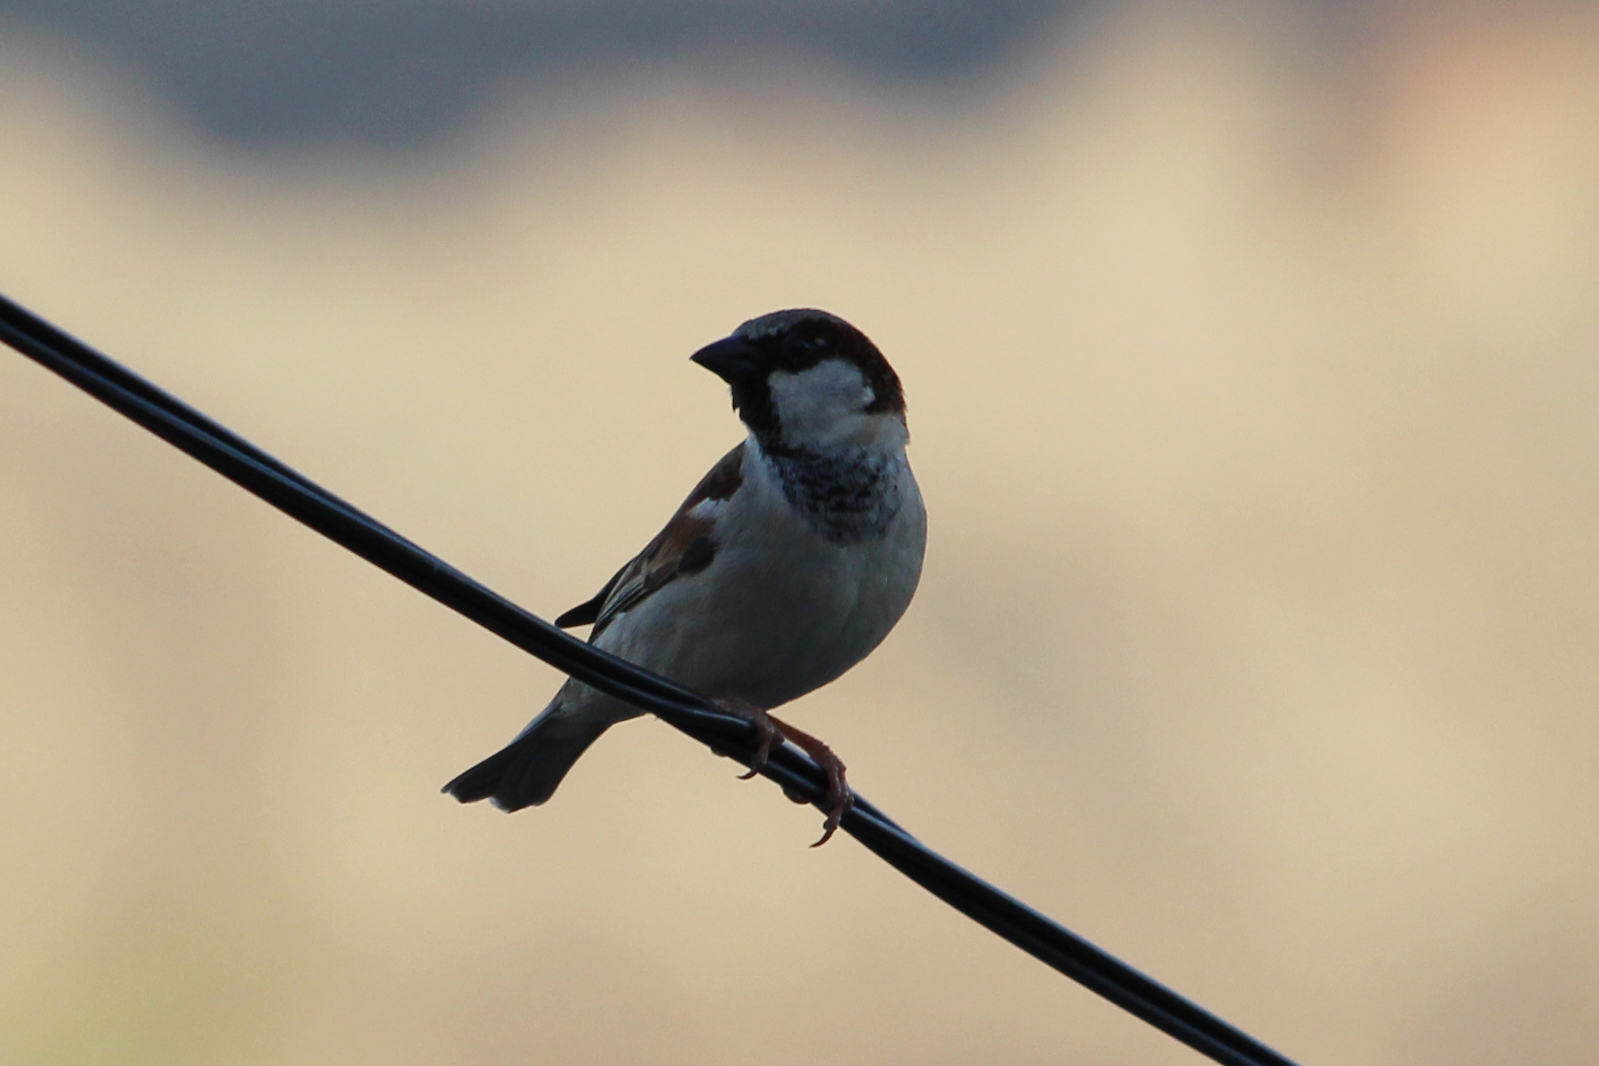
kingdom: Animalia
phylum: Chordata
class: Aves
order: Passeriformes
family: Passeridae
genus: Passer
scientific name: Passer domesticus
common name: House sparrow
